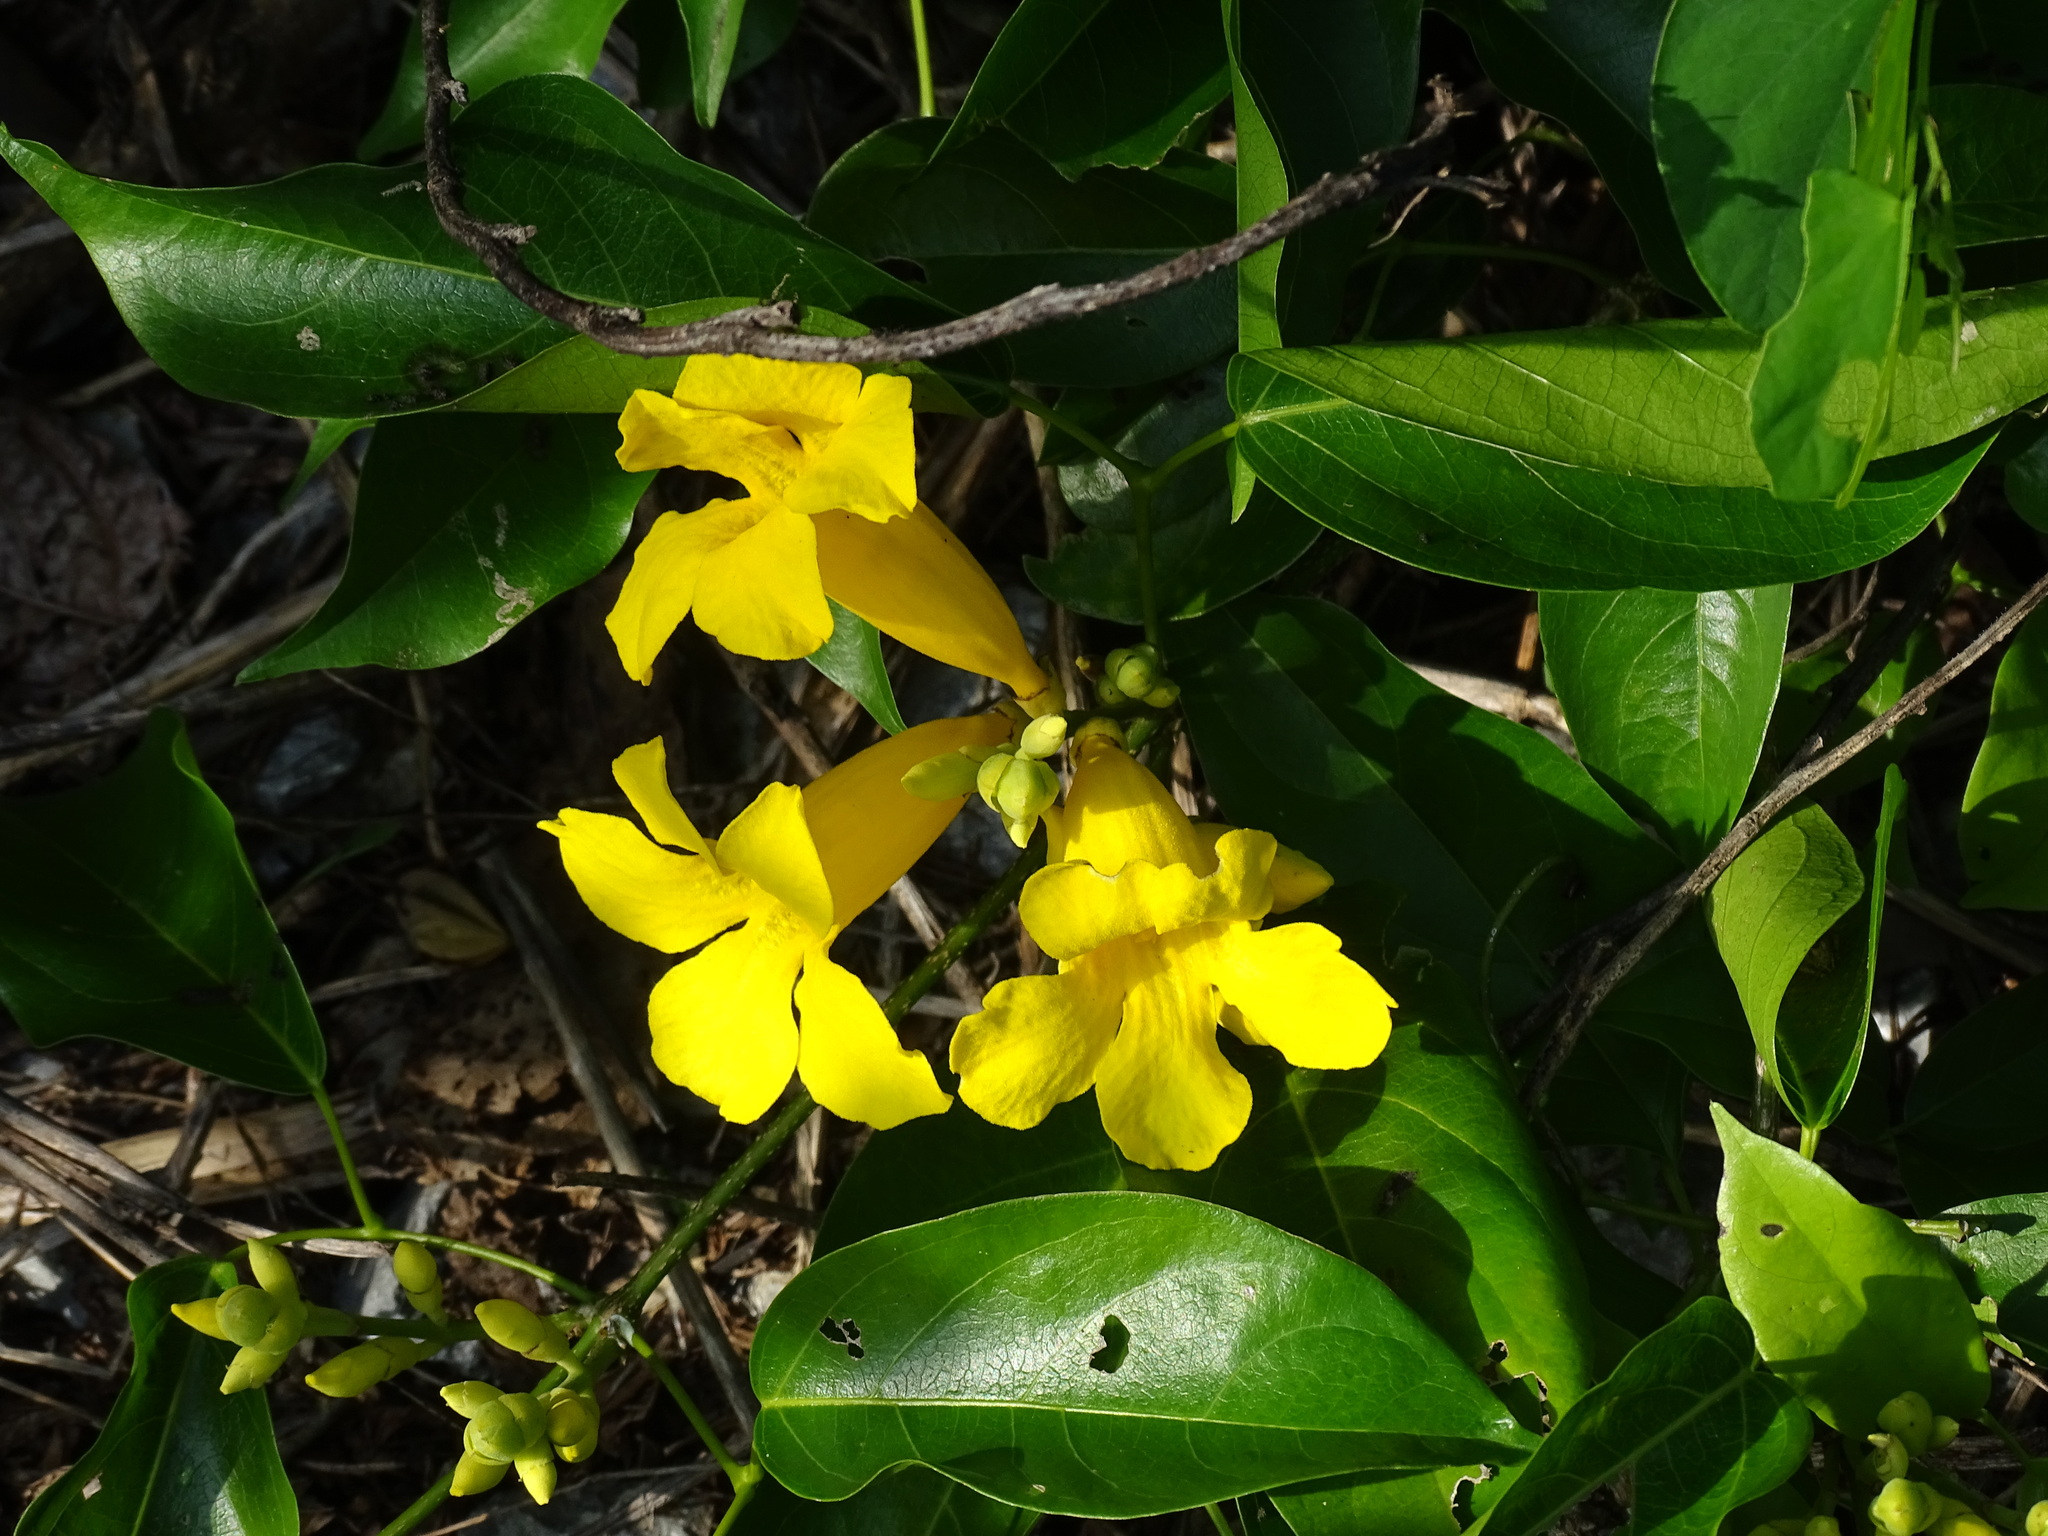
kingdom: Plantae
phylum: Tracheophyta
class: Magnoliopsida
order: Lamiales
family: Bignoniaceae
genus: Adenocalymma
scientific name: Adenocalymma inundatum
